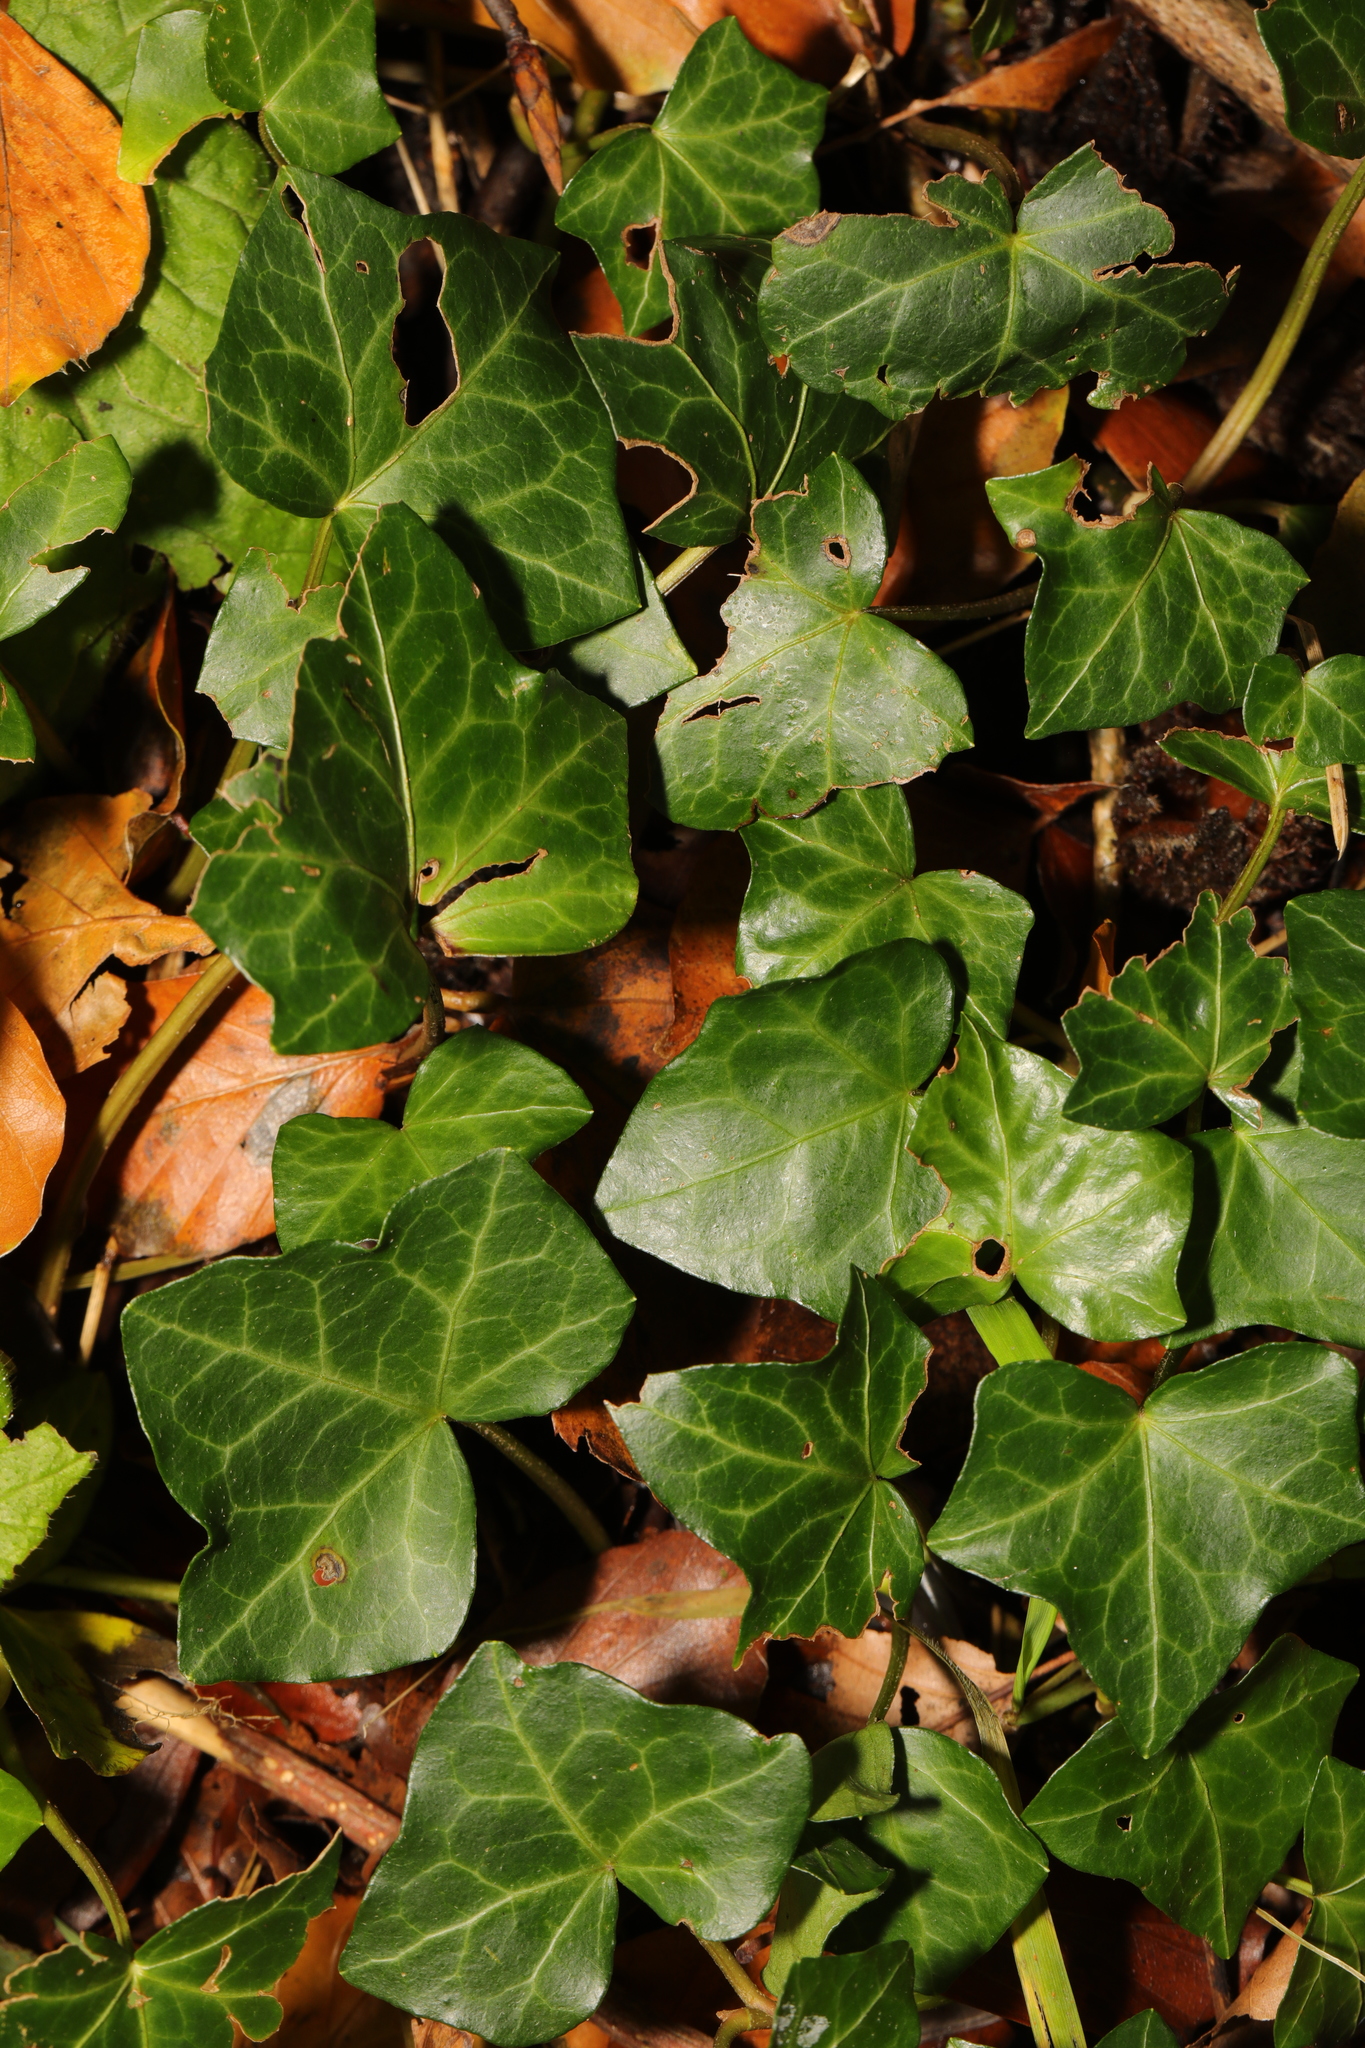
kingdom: Plantae
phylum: Tracheophyta
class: Magnoliopsida
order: Apiales
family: Araliaceae
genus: Hedera
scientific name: Hedera helix
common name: Ivy
